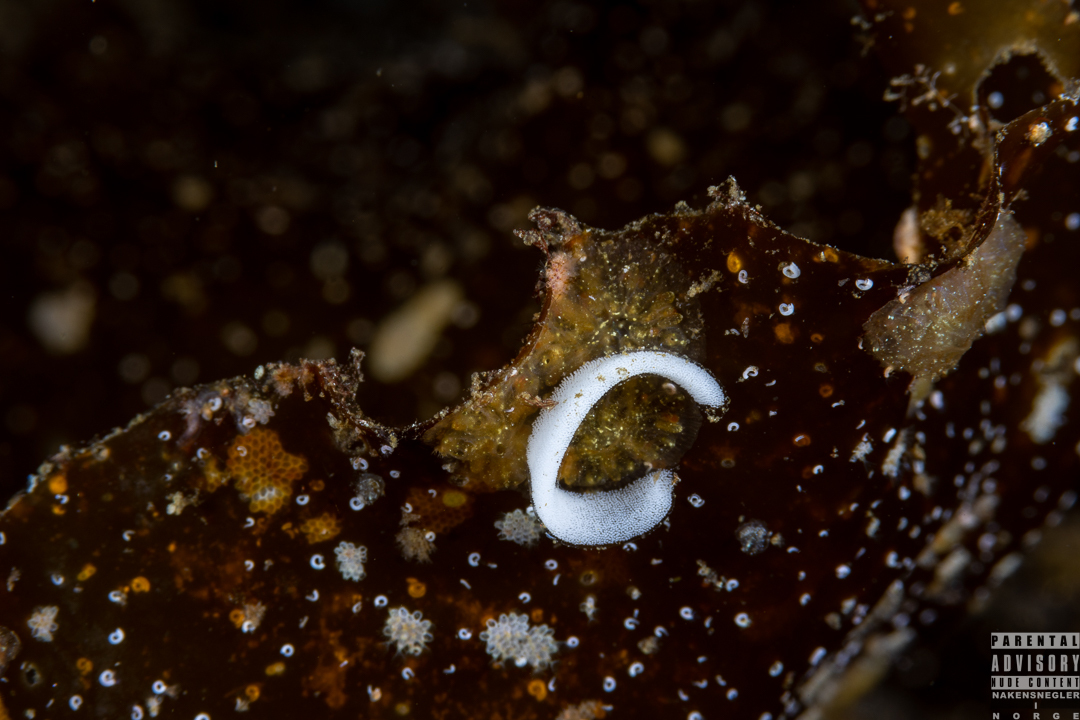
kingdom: Animalia
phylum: Mollusca
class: Gastropoda
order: Nudibranchia
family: Onchidorididae
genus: Adalaria
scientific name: Adalaria loveni
